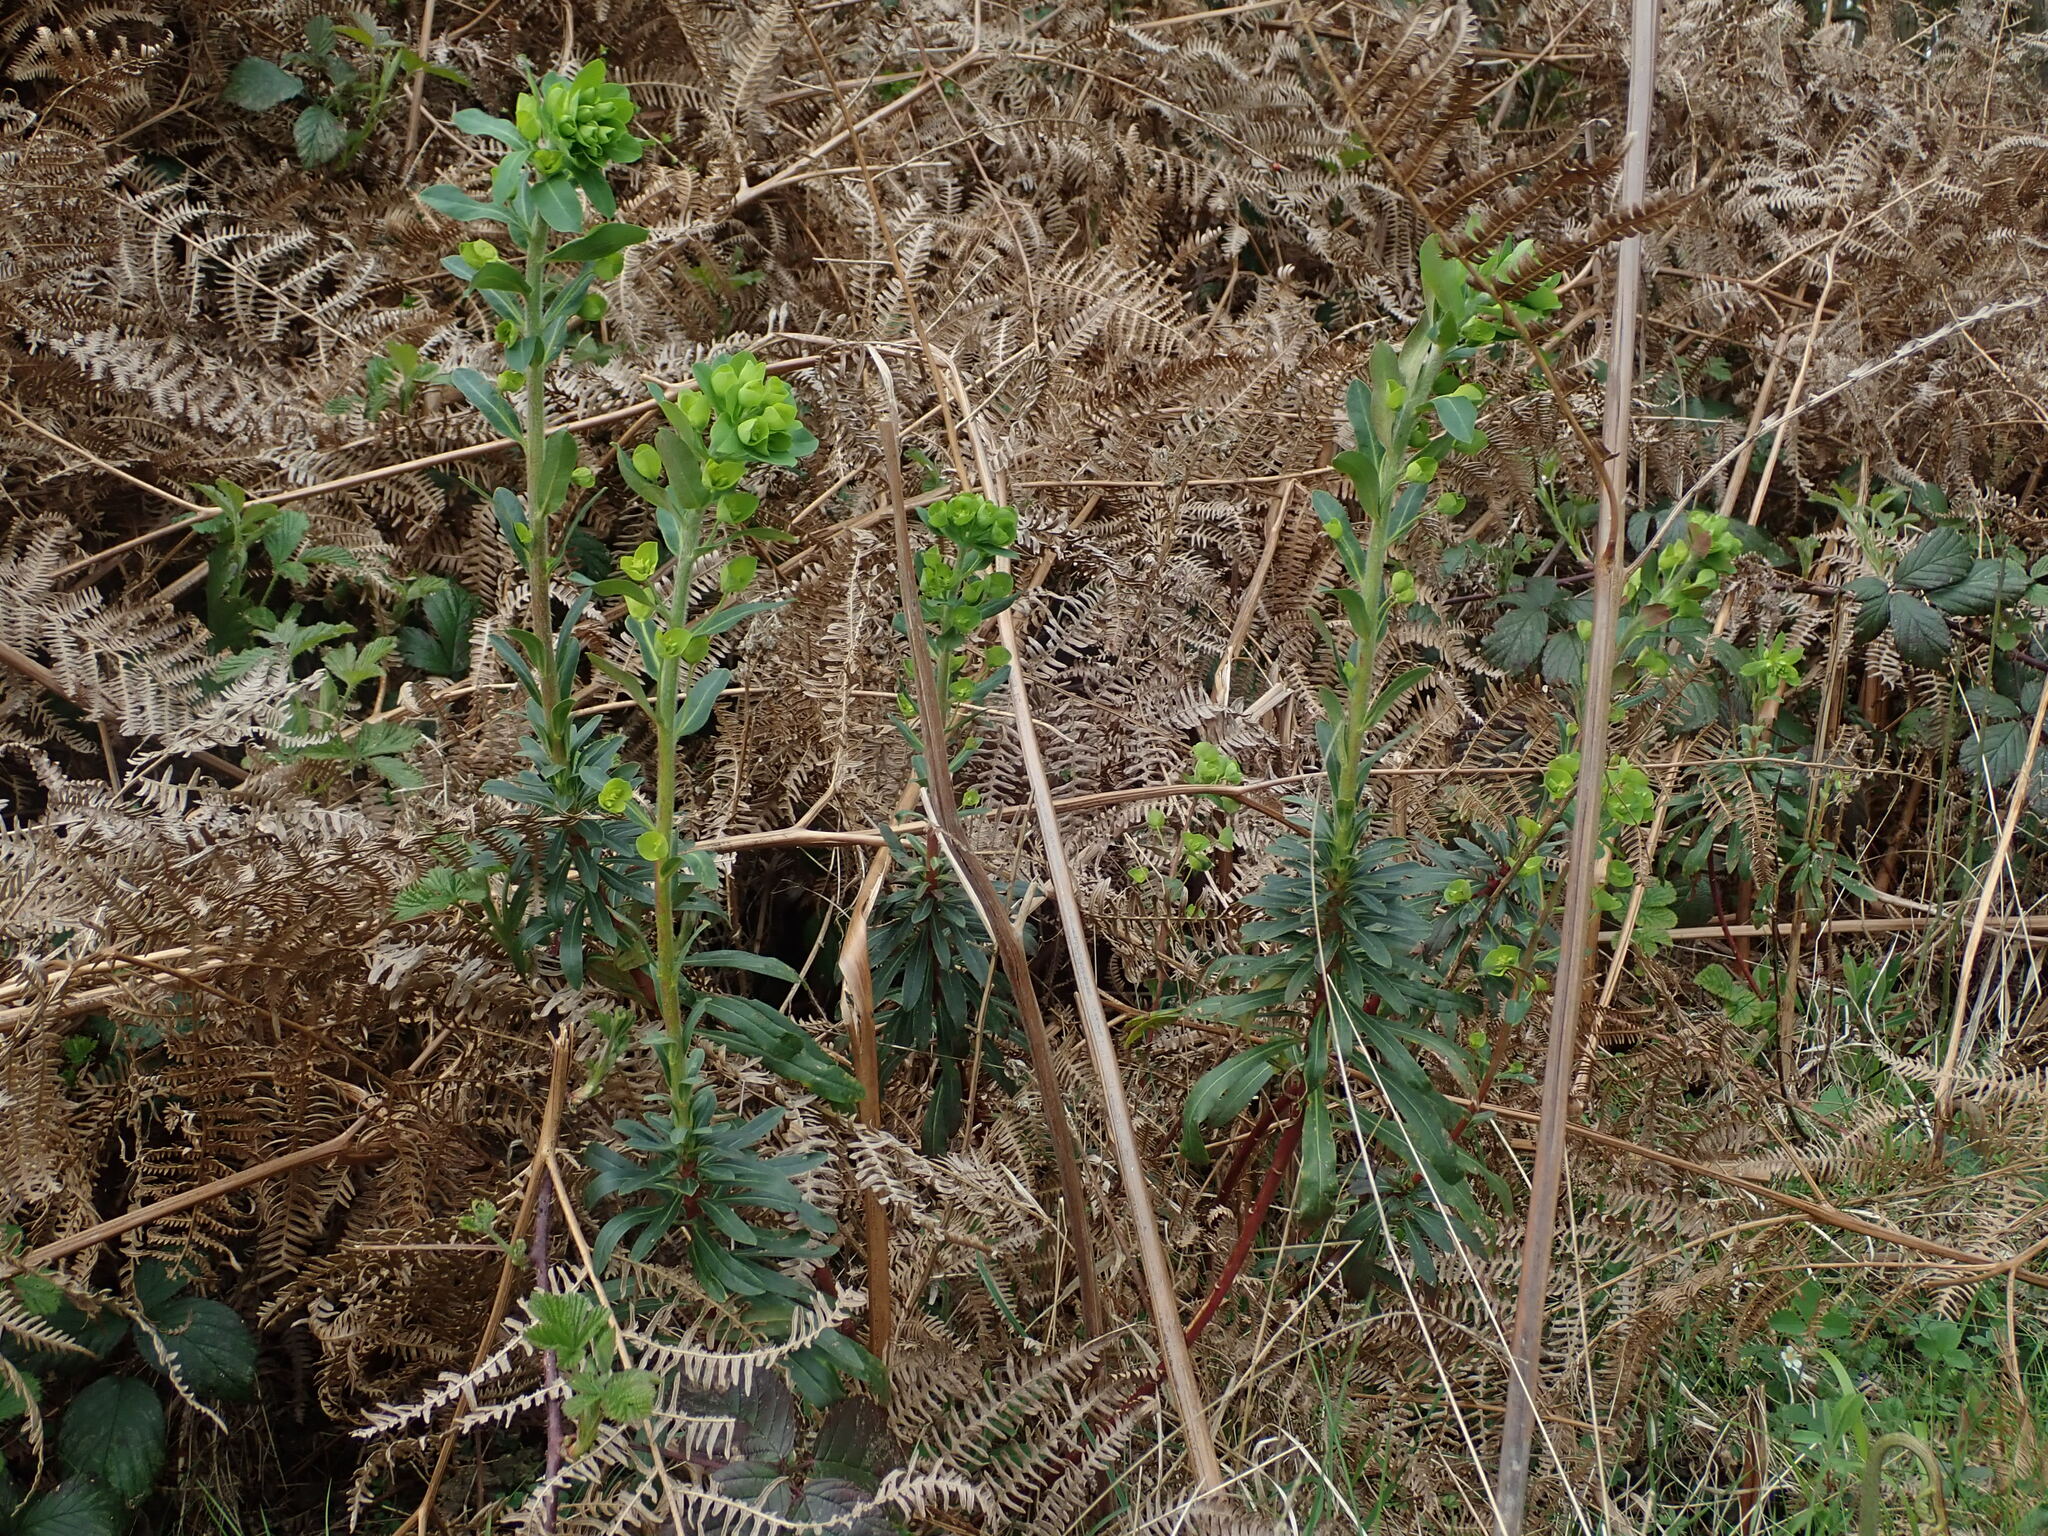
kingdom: Plantae
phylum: Tracheophyta
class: Magnoliopsida
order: Malpighiales
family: Euphorbiaceae
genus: Euphorbia
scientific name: Euphorbia amygdaloides
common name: Wood spurge
